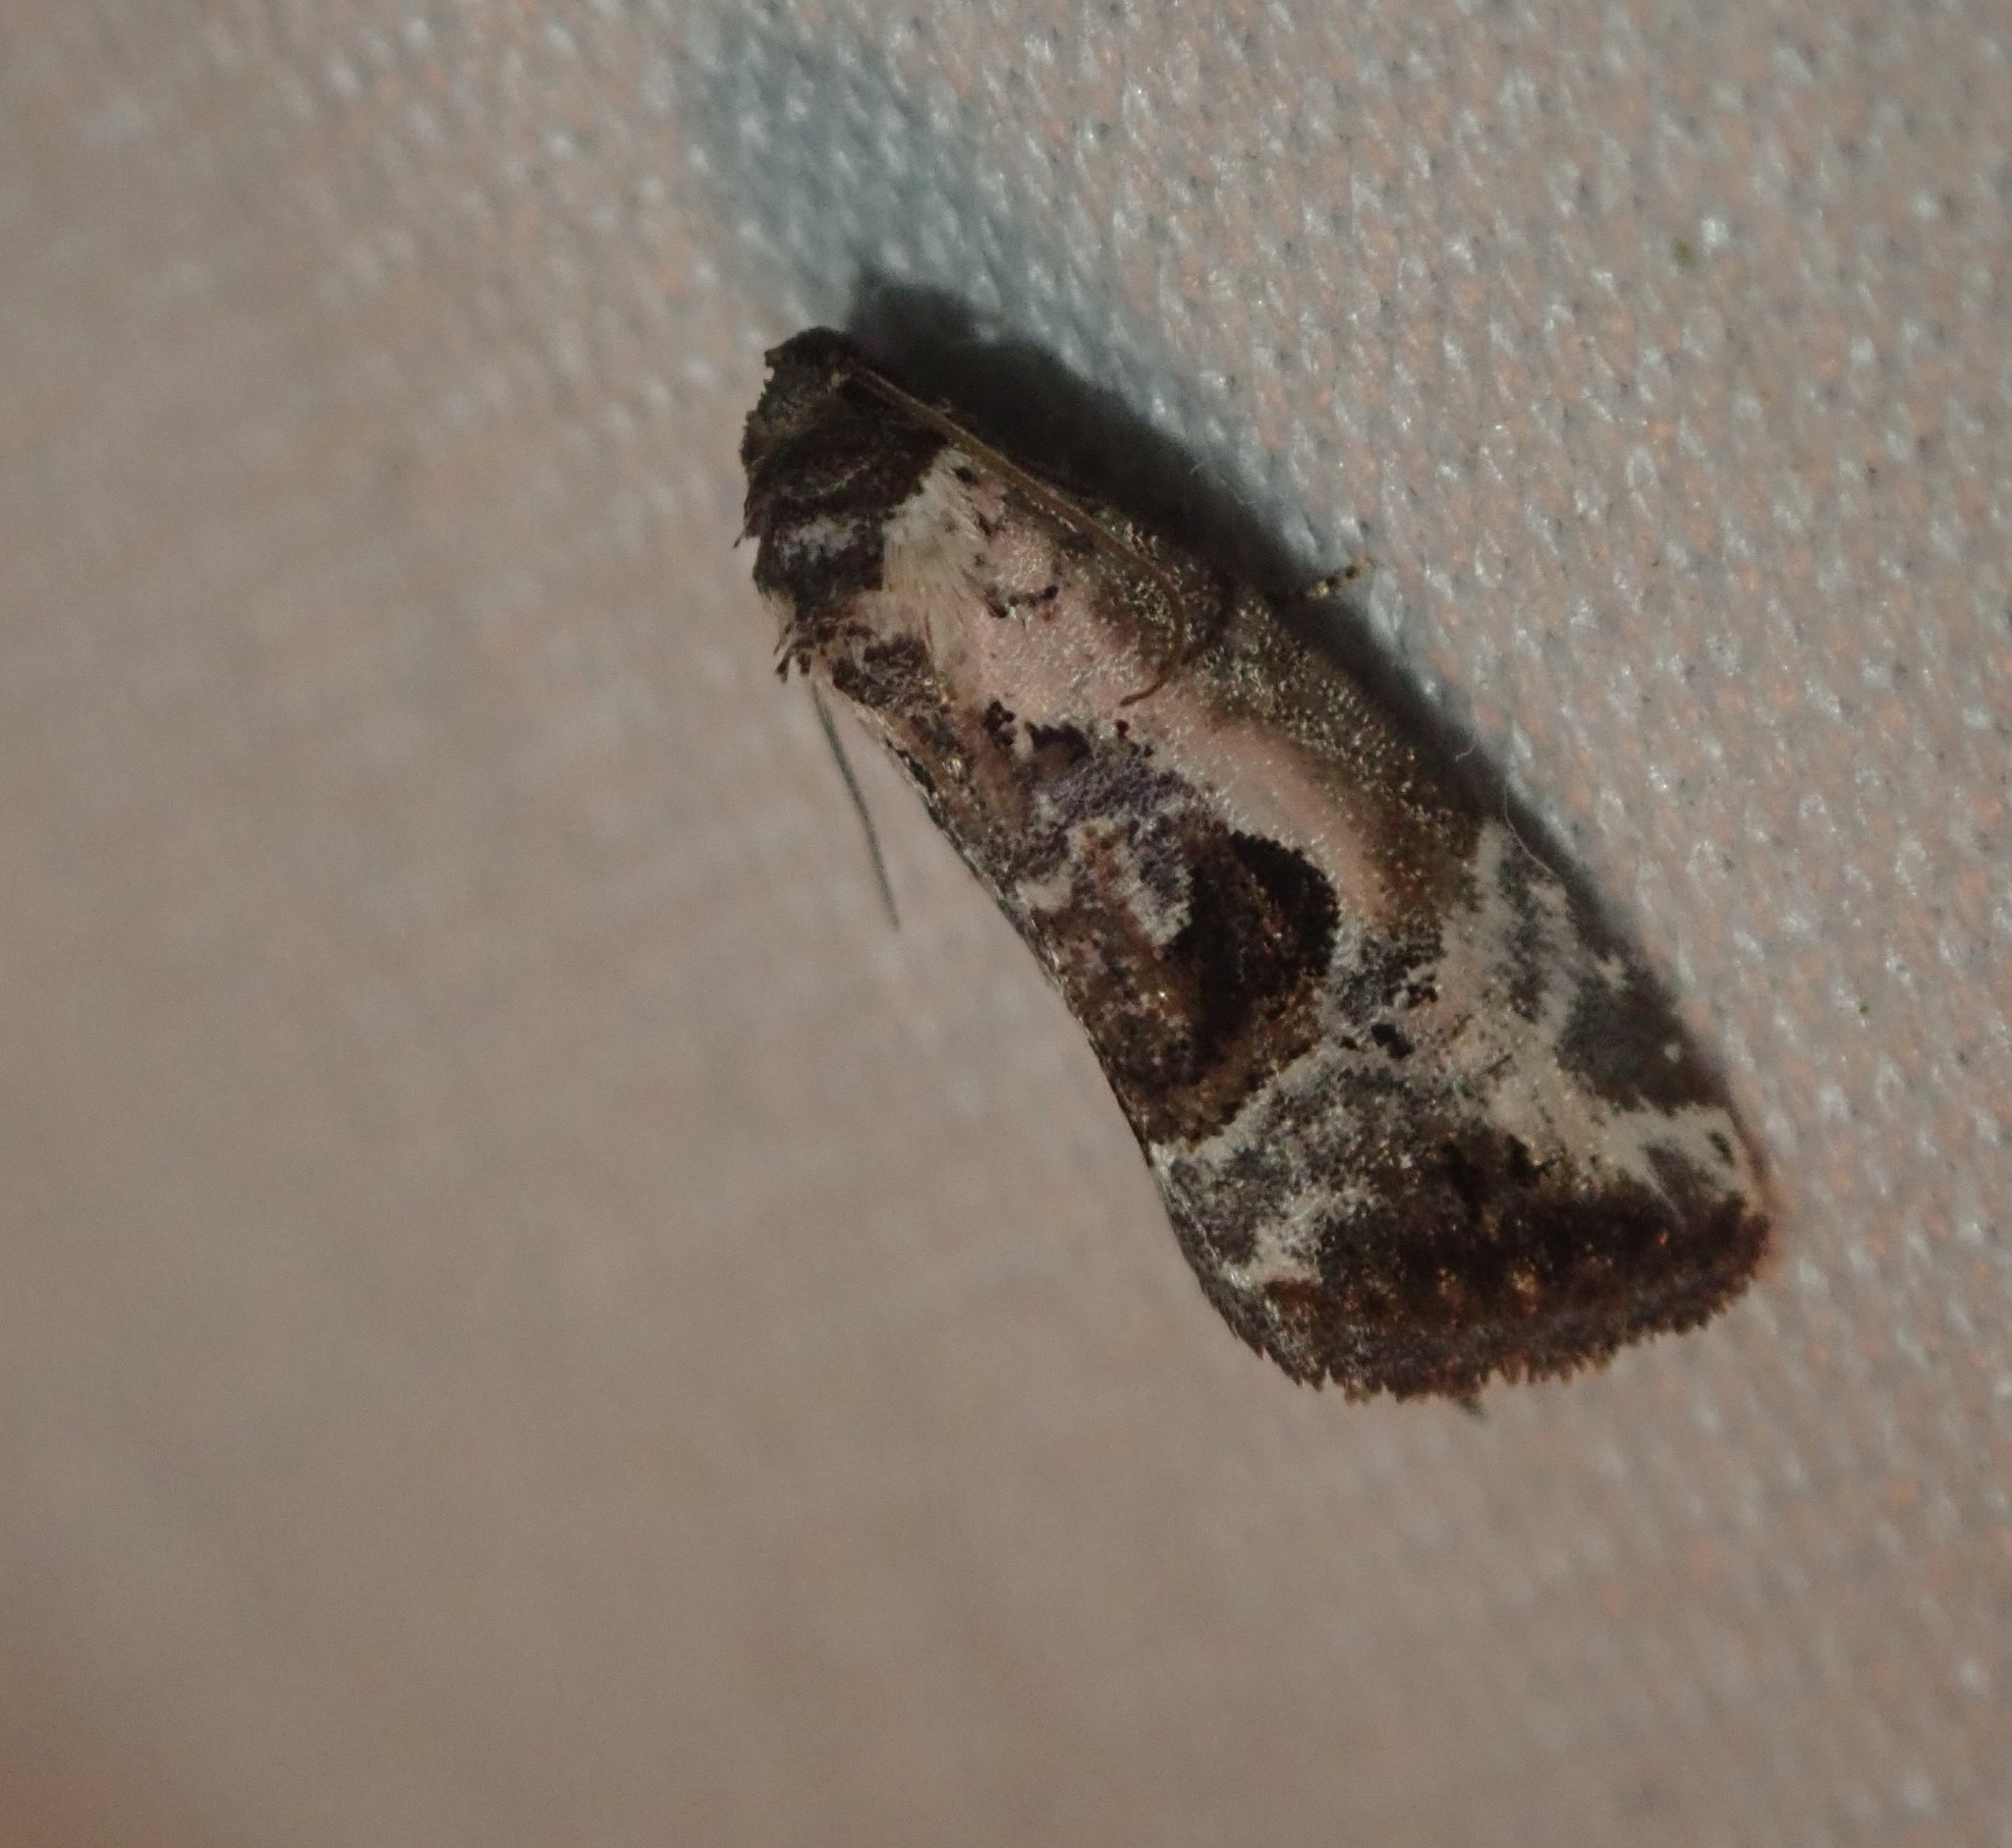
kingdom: Animalia
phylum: Arthropoda
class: Insecta
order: Lepidoptera
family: Noctuidae
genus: Elaphria
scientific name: Elaphria venustula
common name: Rosy marbled
